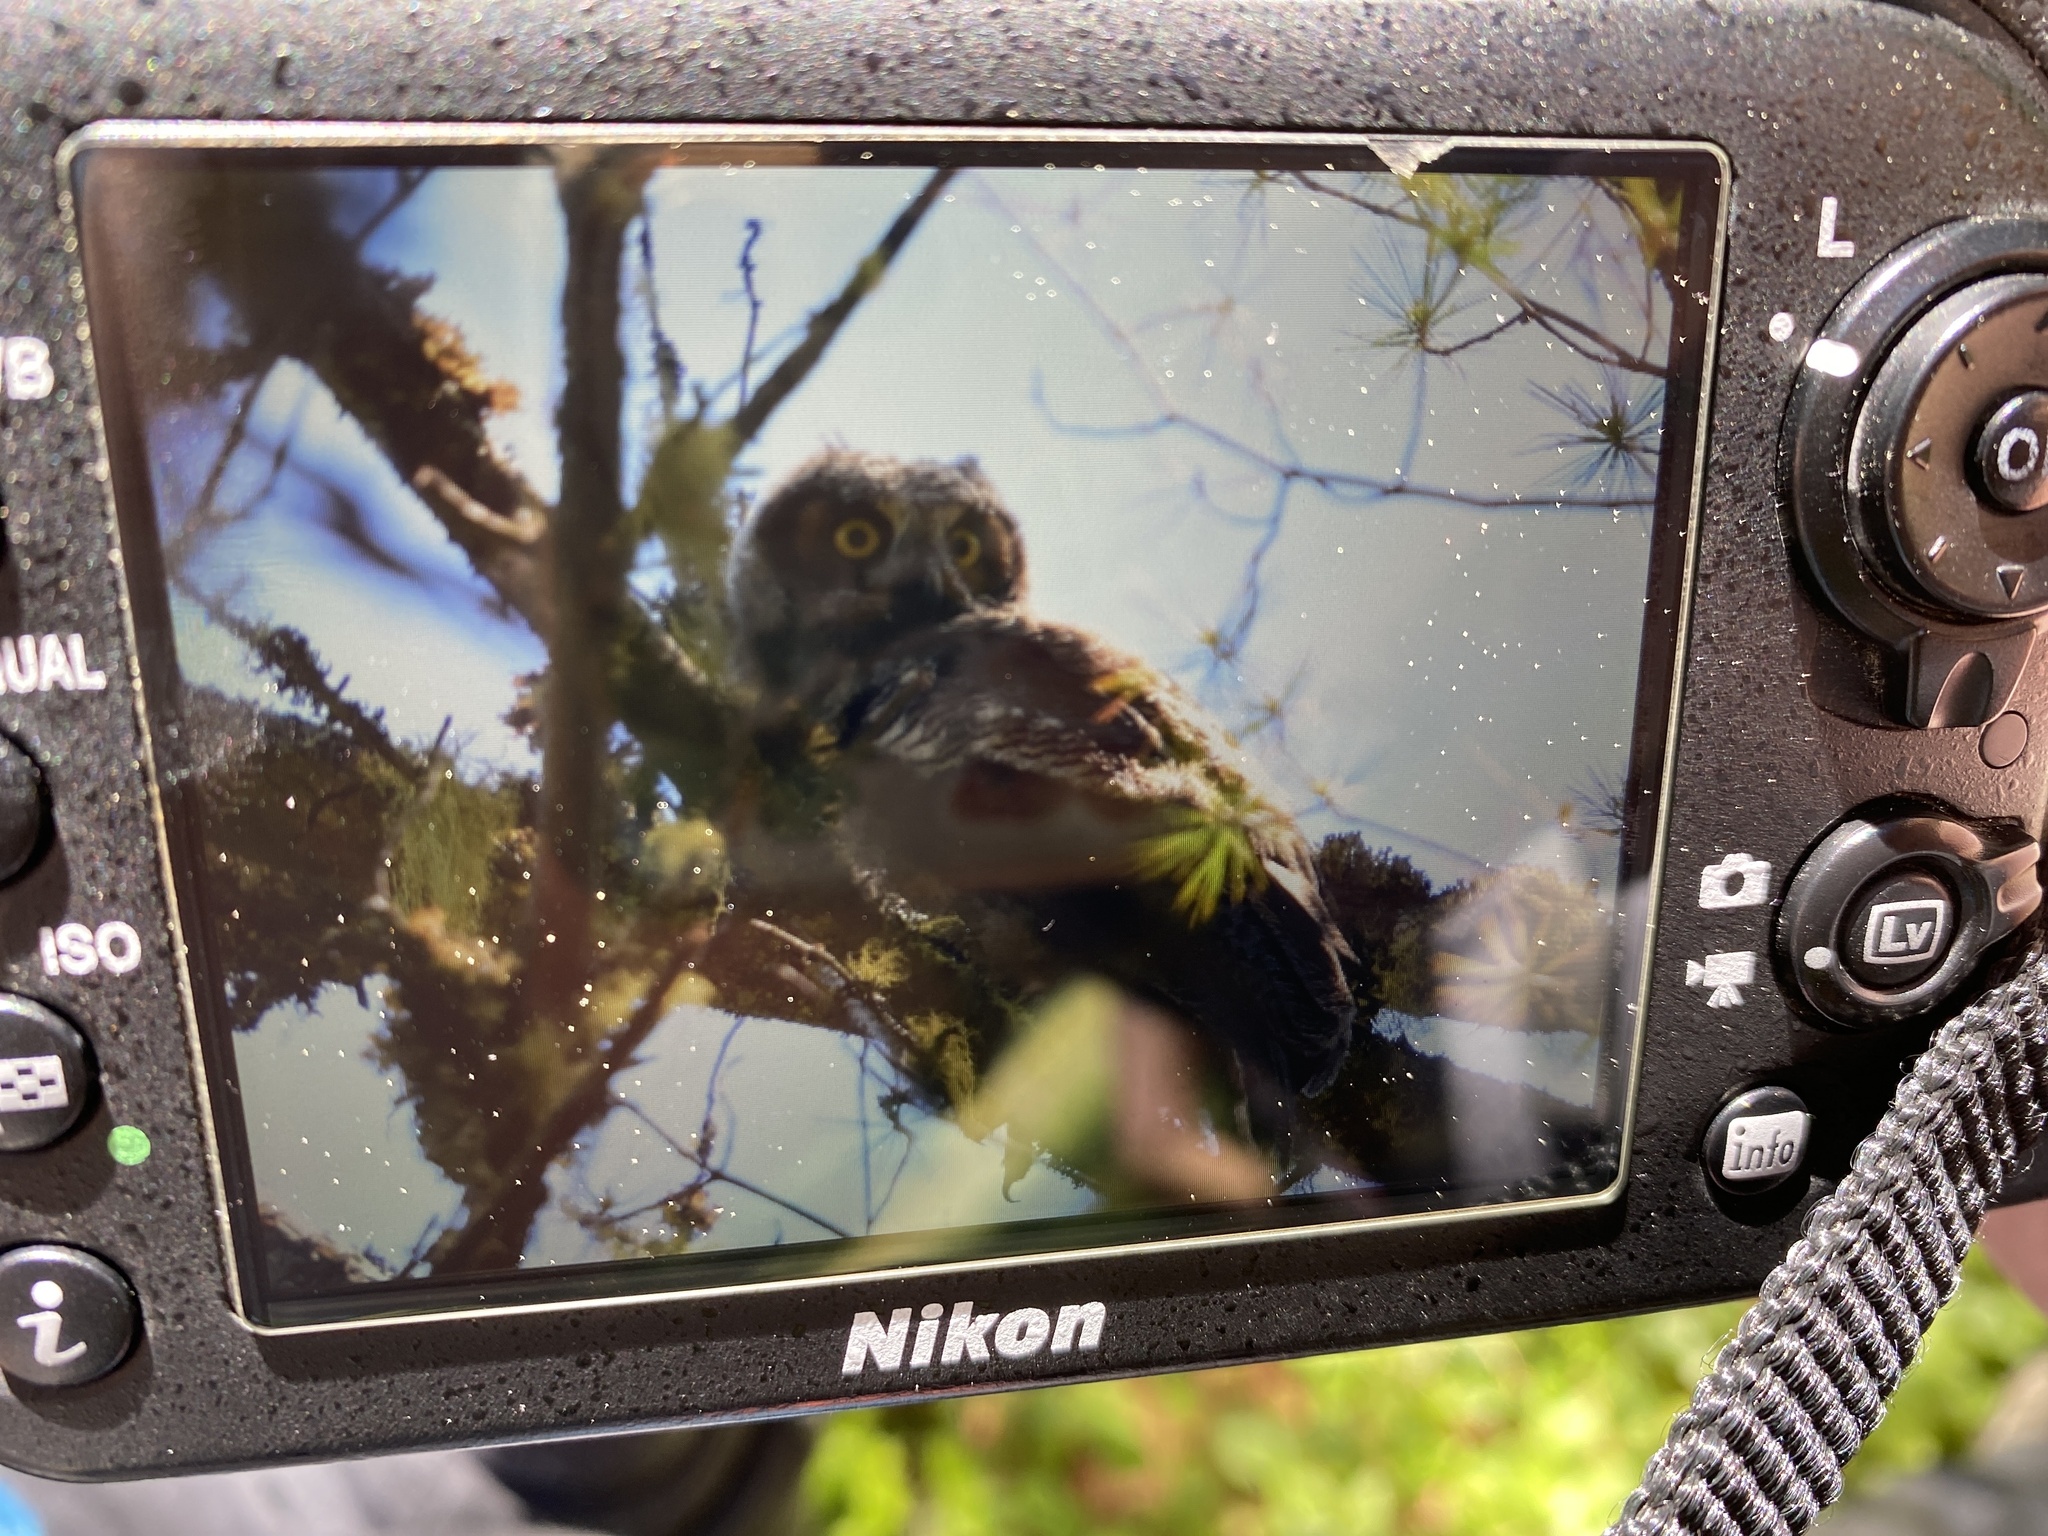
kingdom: Animalia
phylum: Chordata
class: Aves
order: Strigiformes
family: Strigidae
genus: Bubo
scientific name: Bubo virginianus
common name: Great horned owl
